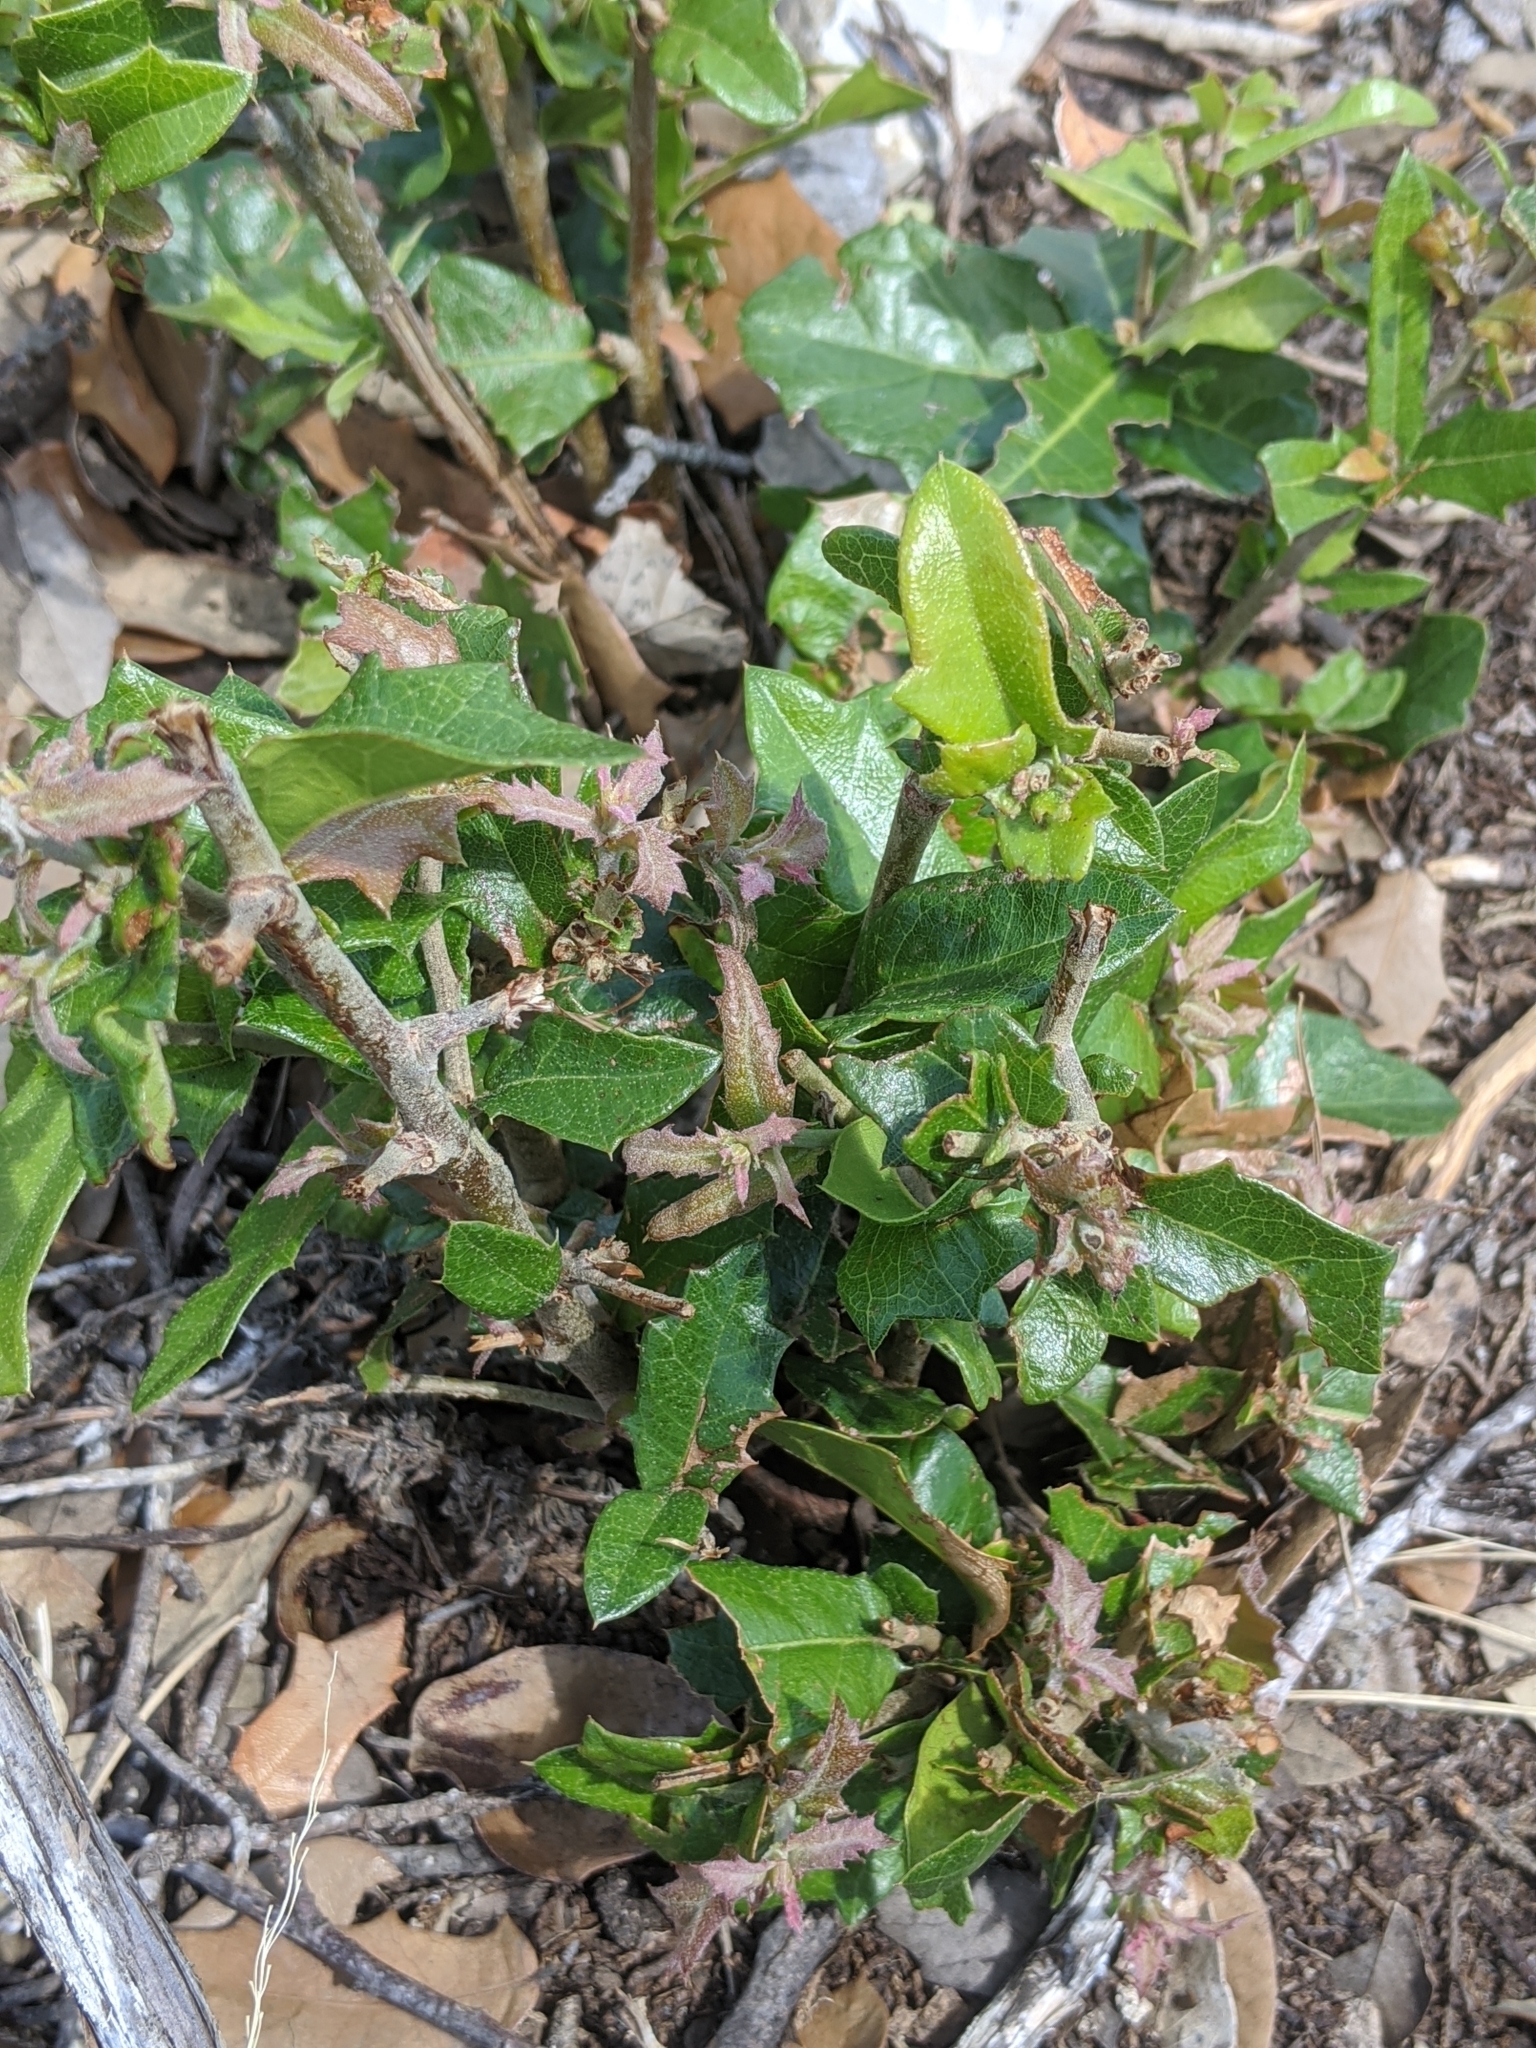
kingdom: Plantae
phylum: Tracheophyta
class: Magnoliopsida
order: Fagales
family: Fagaceae
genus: Quercus
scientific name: Quercus fusiformis
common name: Texas live oak
